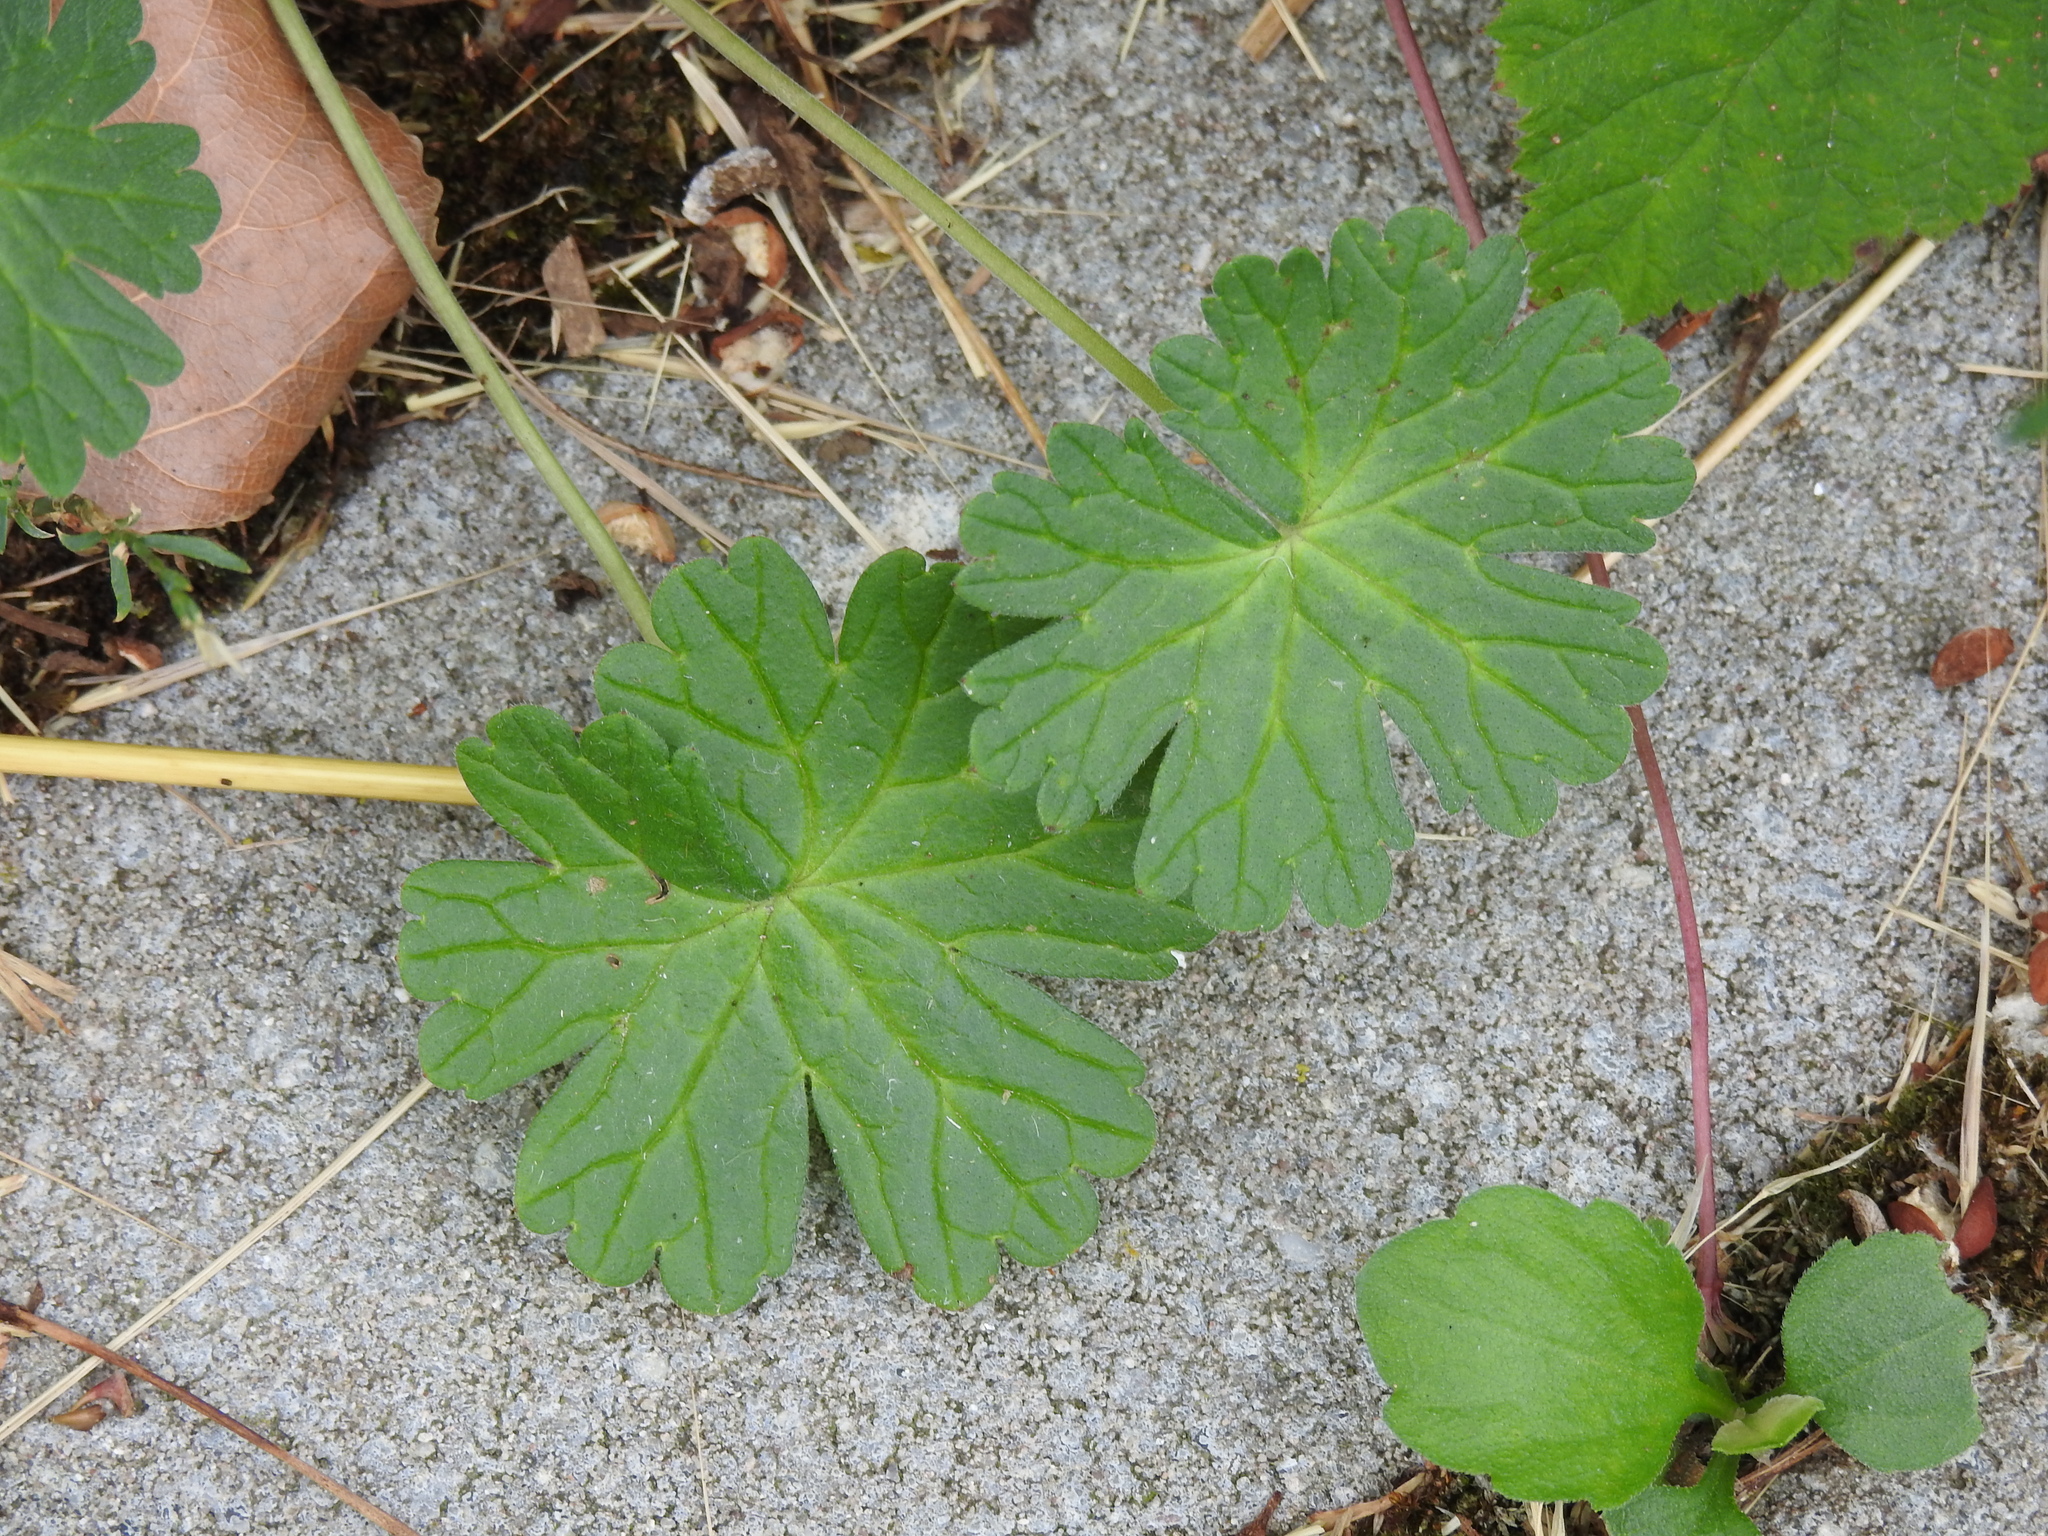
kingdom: Plantae
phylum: Tracheophyta
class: Magnoliopsida
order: Geraniales
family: Geraniaceae
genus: Geranium
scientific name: Geranium pyrenaicum
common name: Hedgerow crane's-bill
